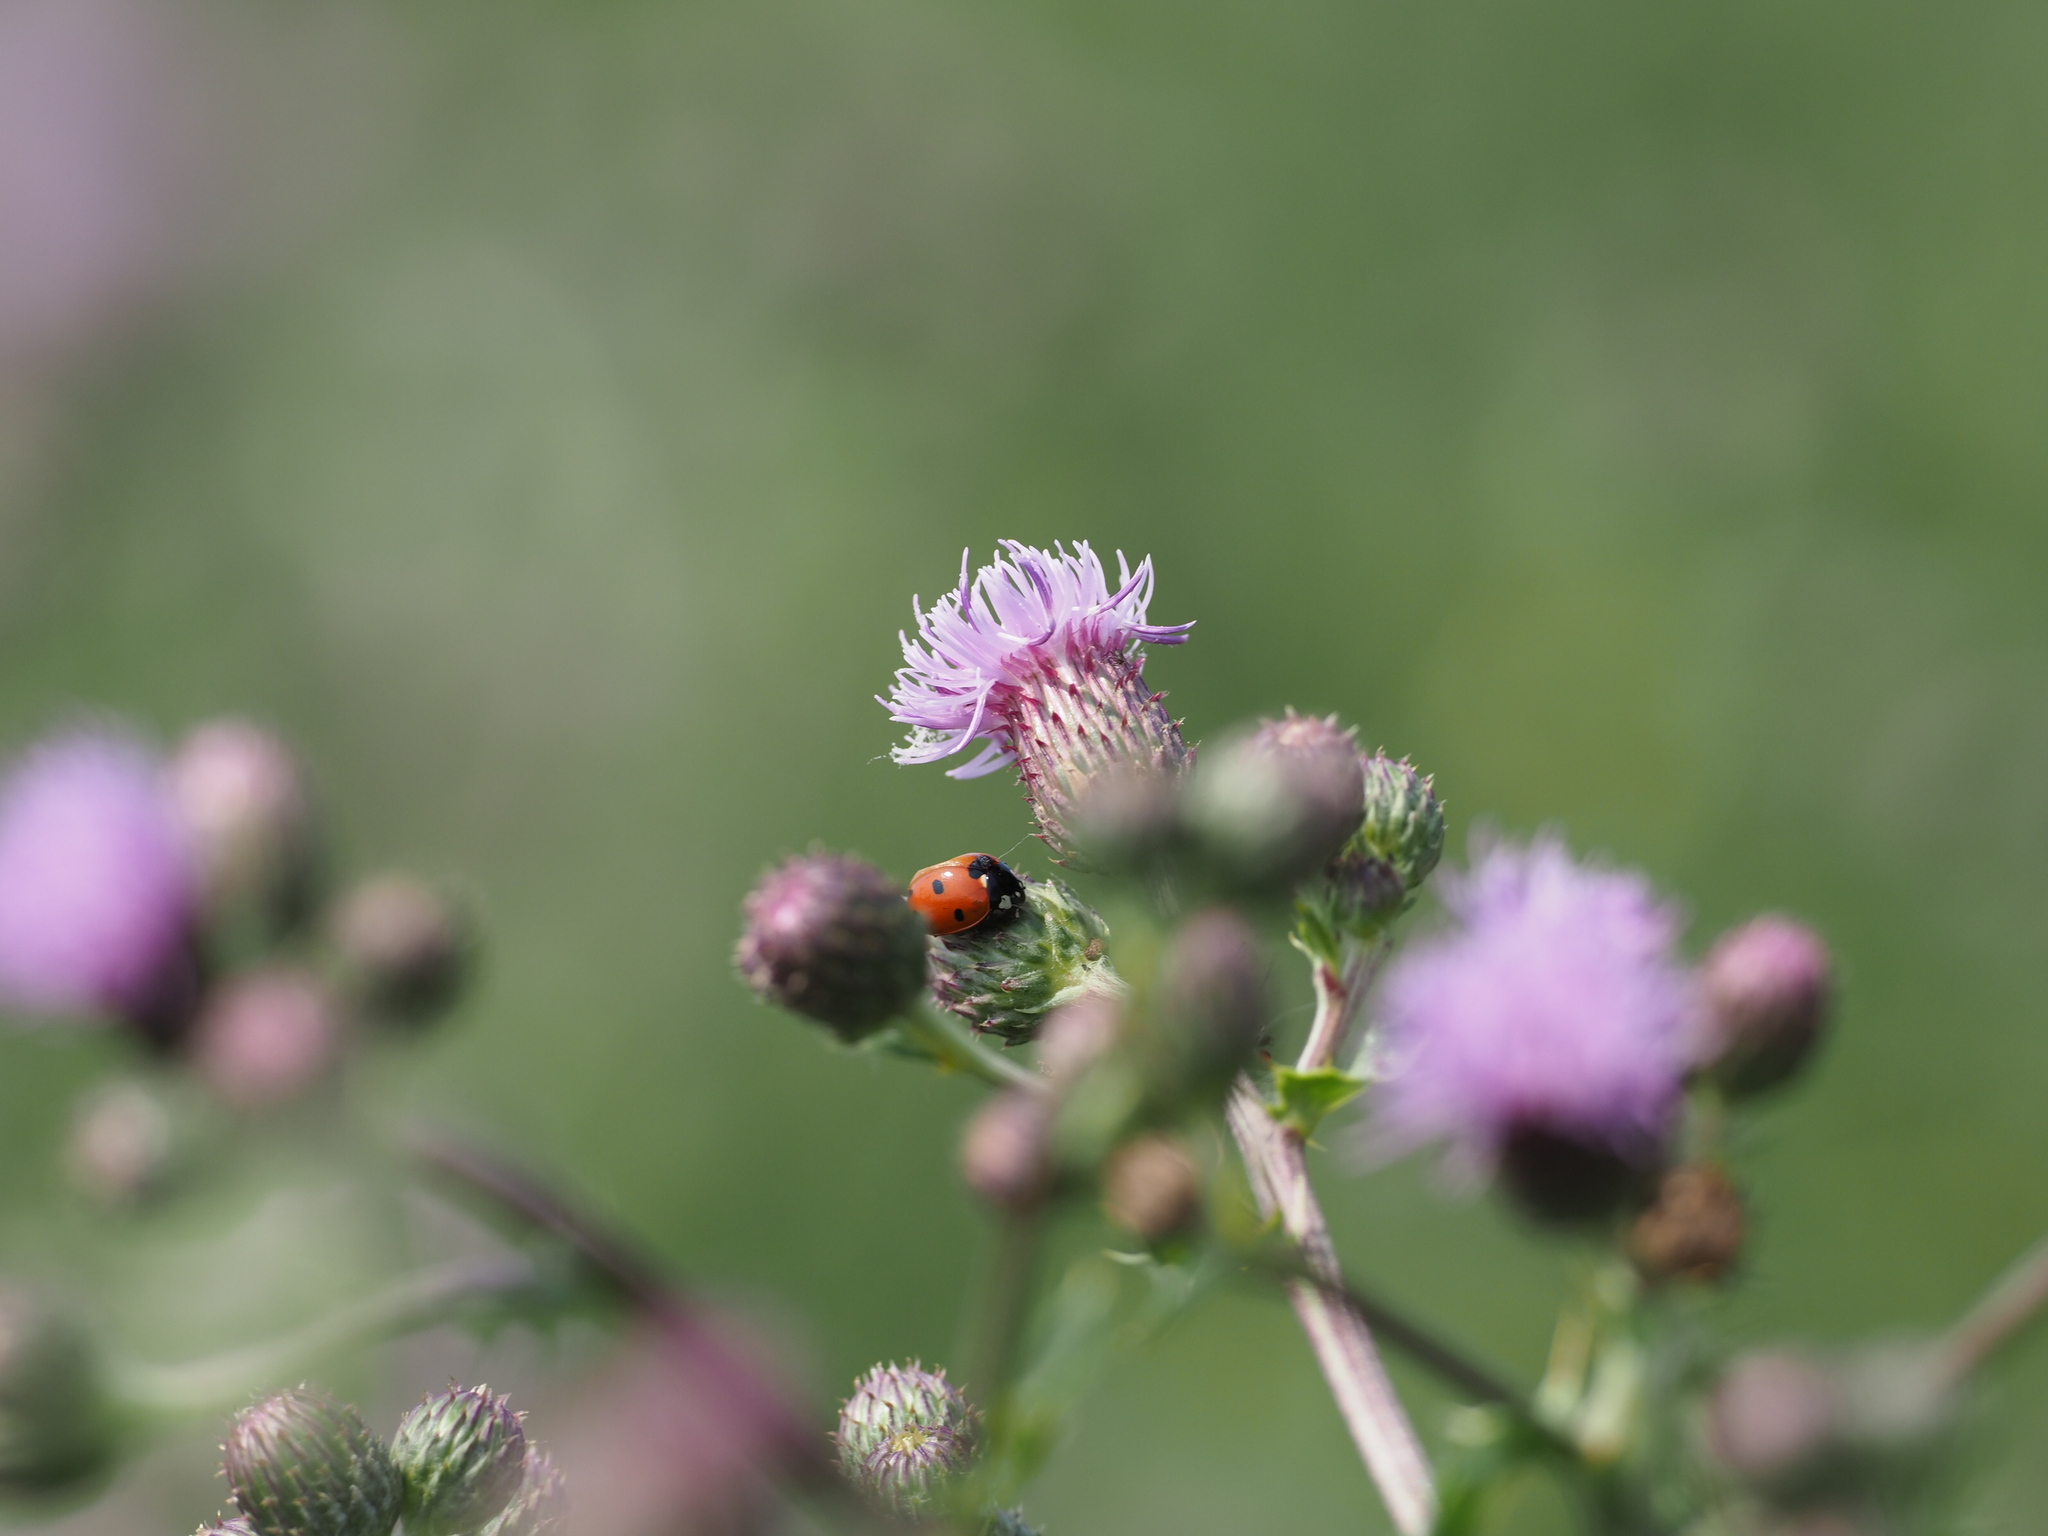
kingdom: Animalia
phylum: Arthropoda
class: Insecta
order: Coleoptera
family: Coccinellidae
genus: Coccinella
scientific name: Coccinella septempunctata
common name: Sevenspotted lady beetle
